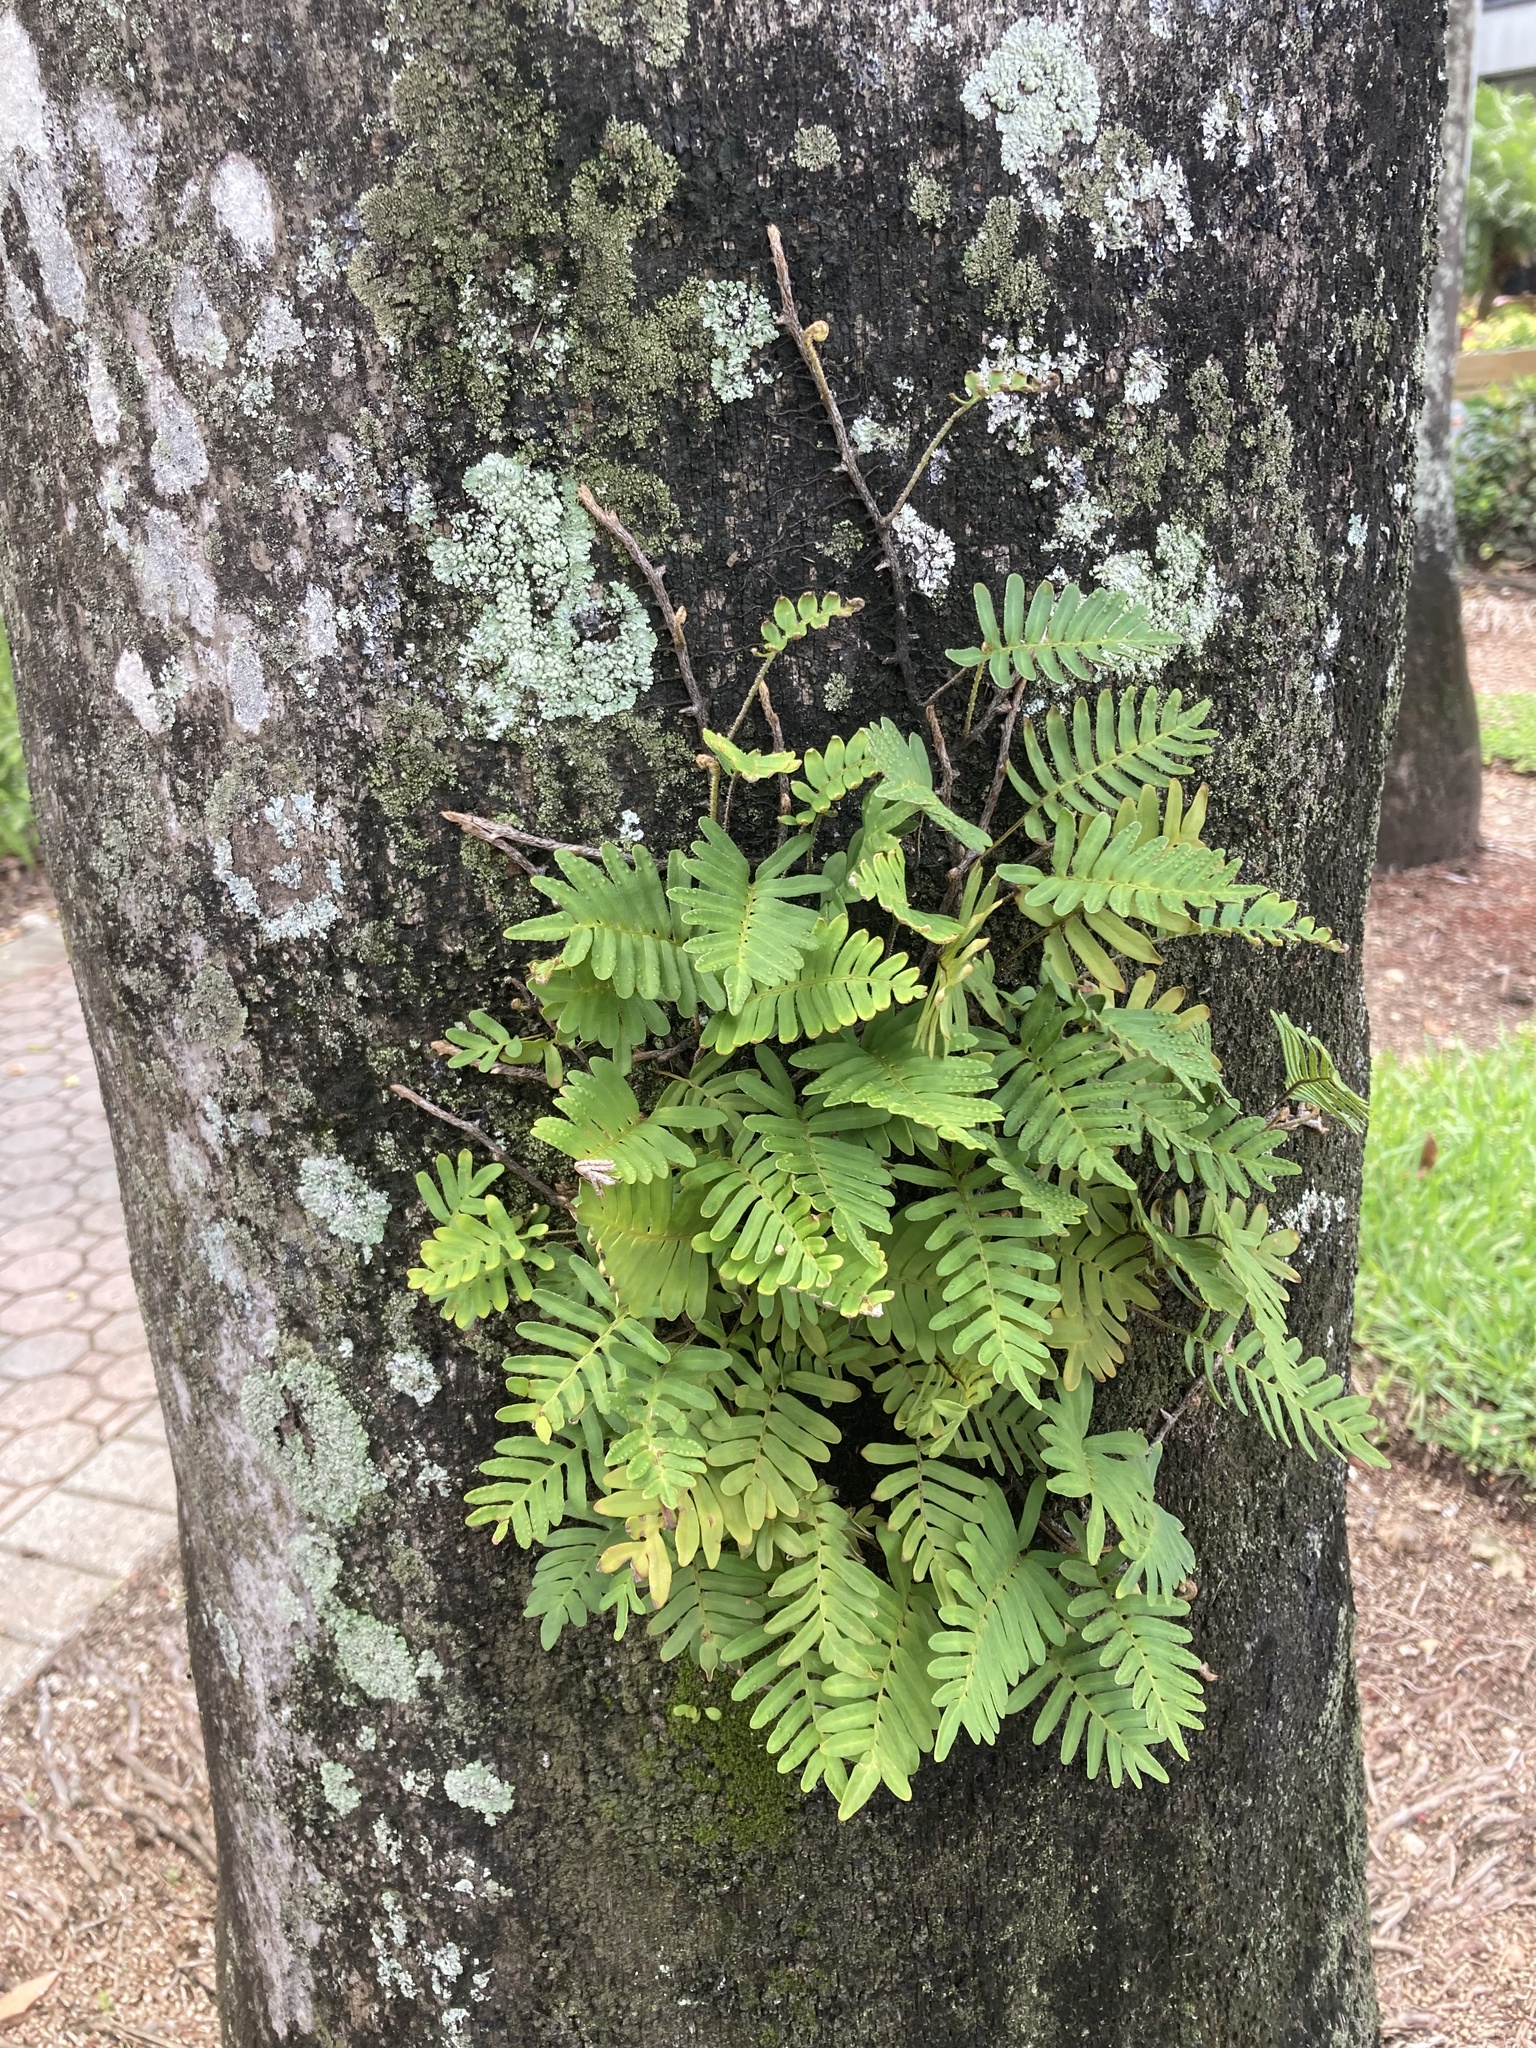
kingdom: Plantae
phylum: Tracheophyta
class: Polypodiopsida
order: Polypodiales
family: Polypodiaceae
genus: Pleopeltis
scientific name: Pleopeltis michauxiana
